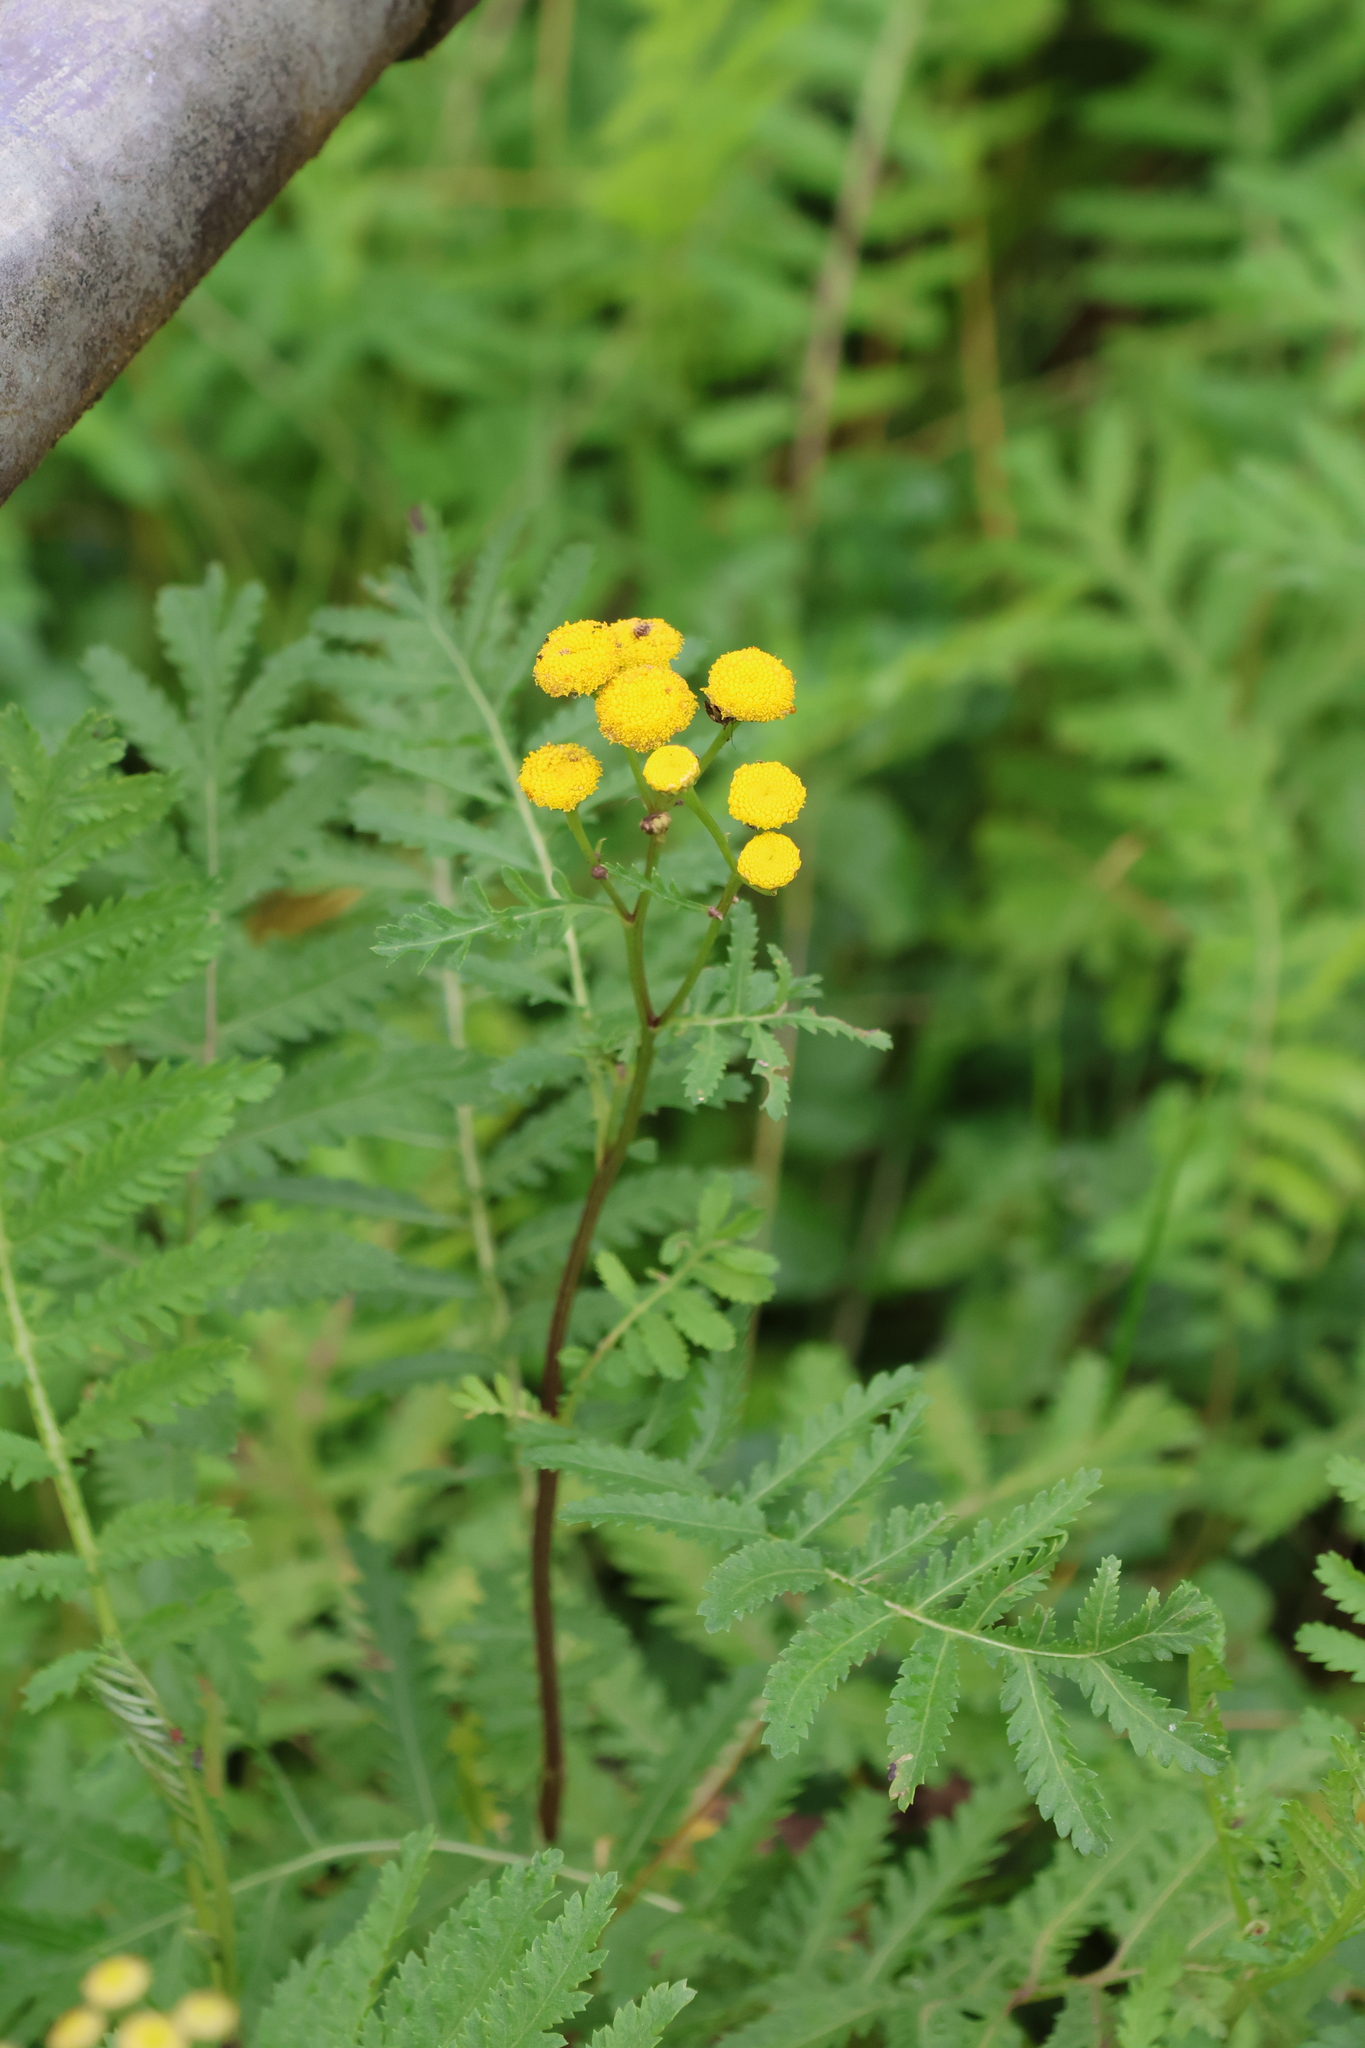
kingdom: Plantae
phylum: Tracheophyta
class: Magnoliopsida
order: Asterales
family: Asteraceae
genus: Tanacetum
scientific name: Tanacetum vulgare
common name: Common tansy
